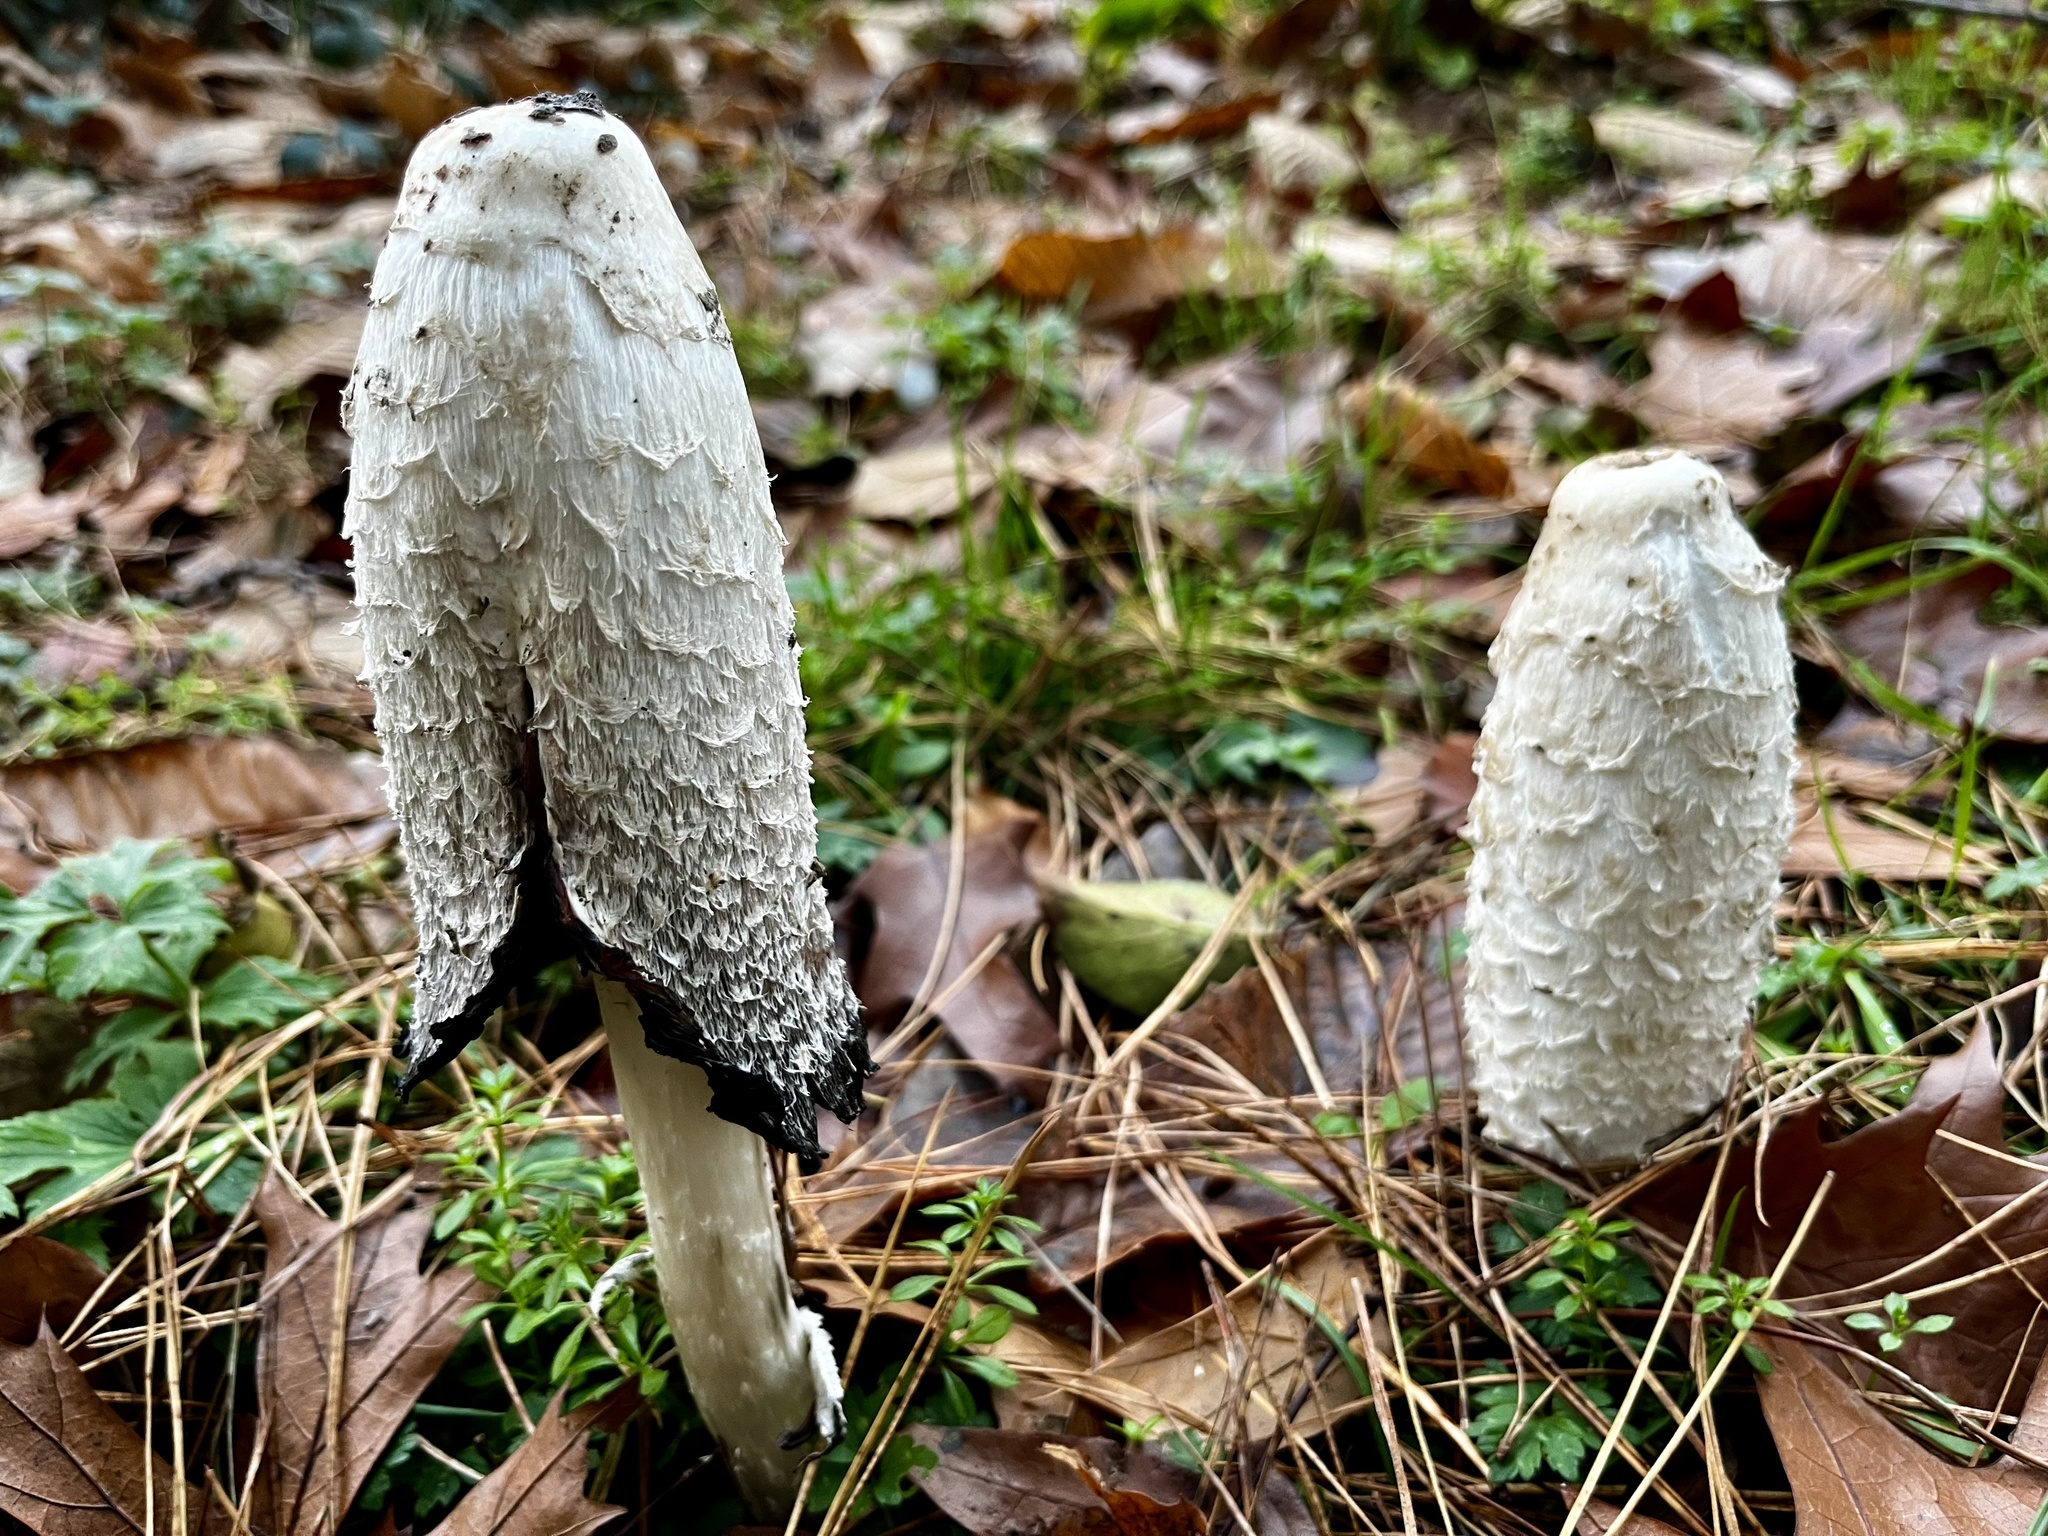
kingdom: Fungi
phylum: Basidiomycota
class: Agaricomycetes
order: Agaricales
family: Agaricaceae
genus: Coprinus
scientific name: Coprinus comatus
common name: Lawyer's wig
